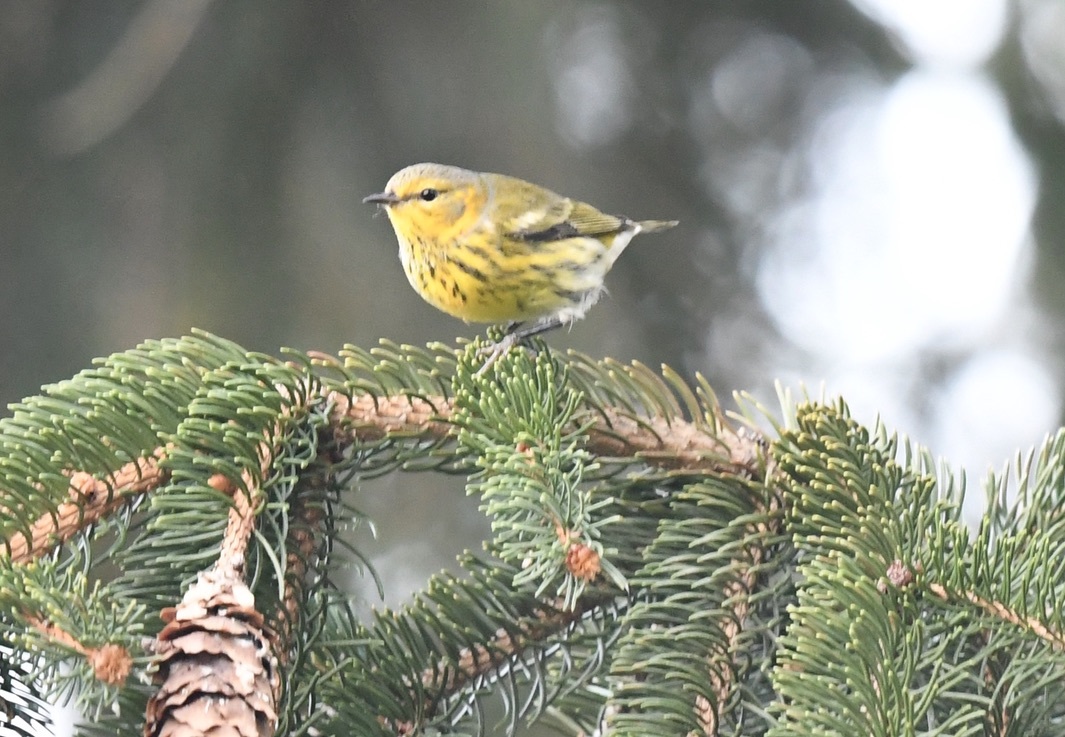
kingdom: Animalia
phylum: Chordata
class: Aves
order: Passeriformes
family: Parulidae
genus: Setophaga
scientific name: Setophaga tigrina
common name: Cape may warbler
